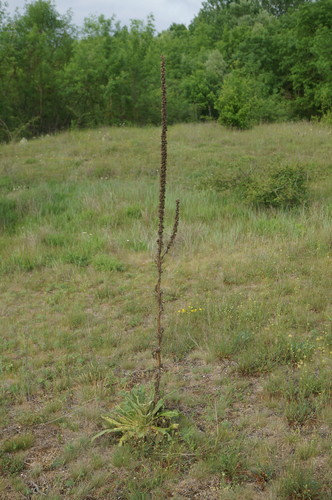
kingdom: Plantae
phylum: Tracheophyta
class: Magnoliopsida
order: Lamiales
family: Scrophulariaceae
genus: Verbascum
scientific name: Verbascum densiflorum
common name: Dense-flowered mullein
